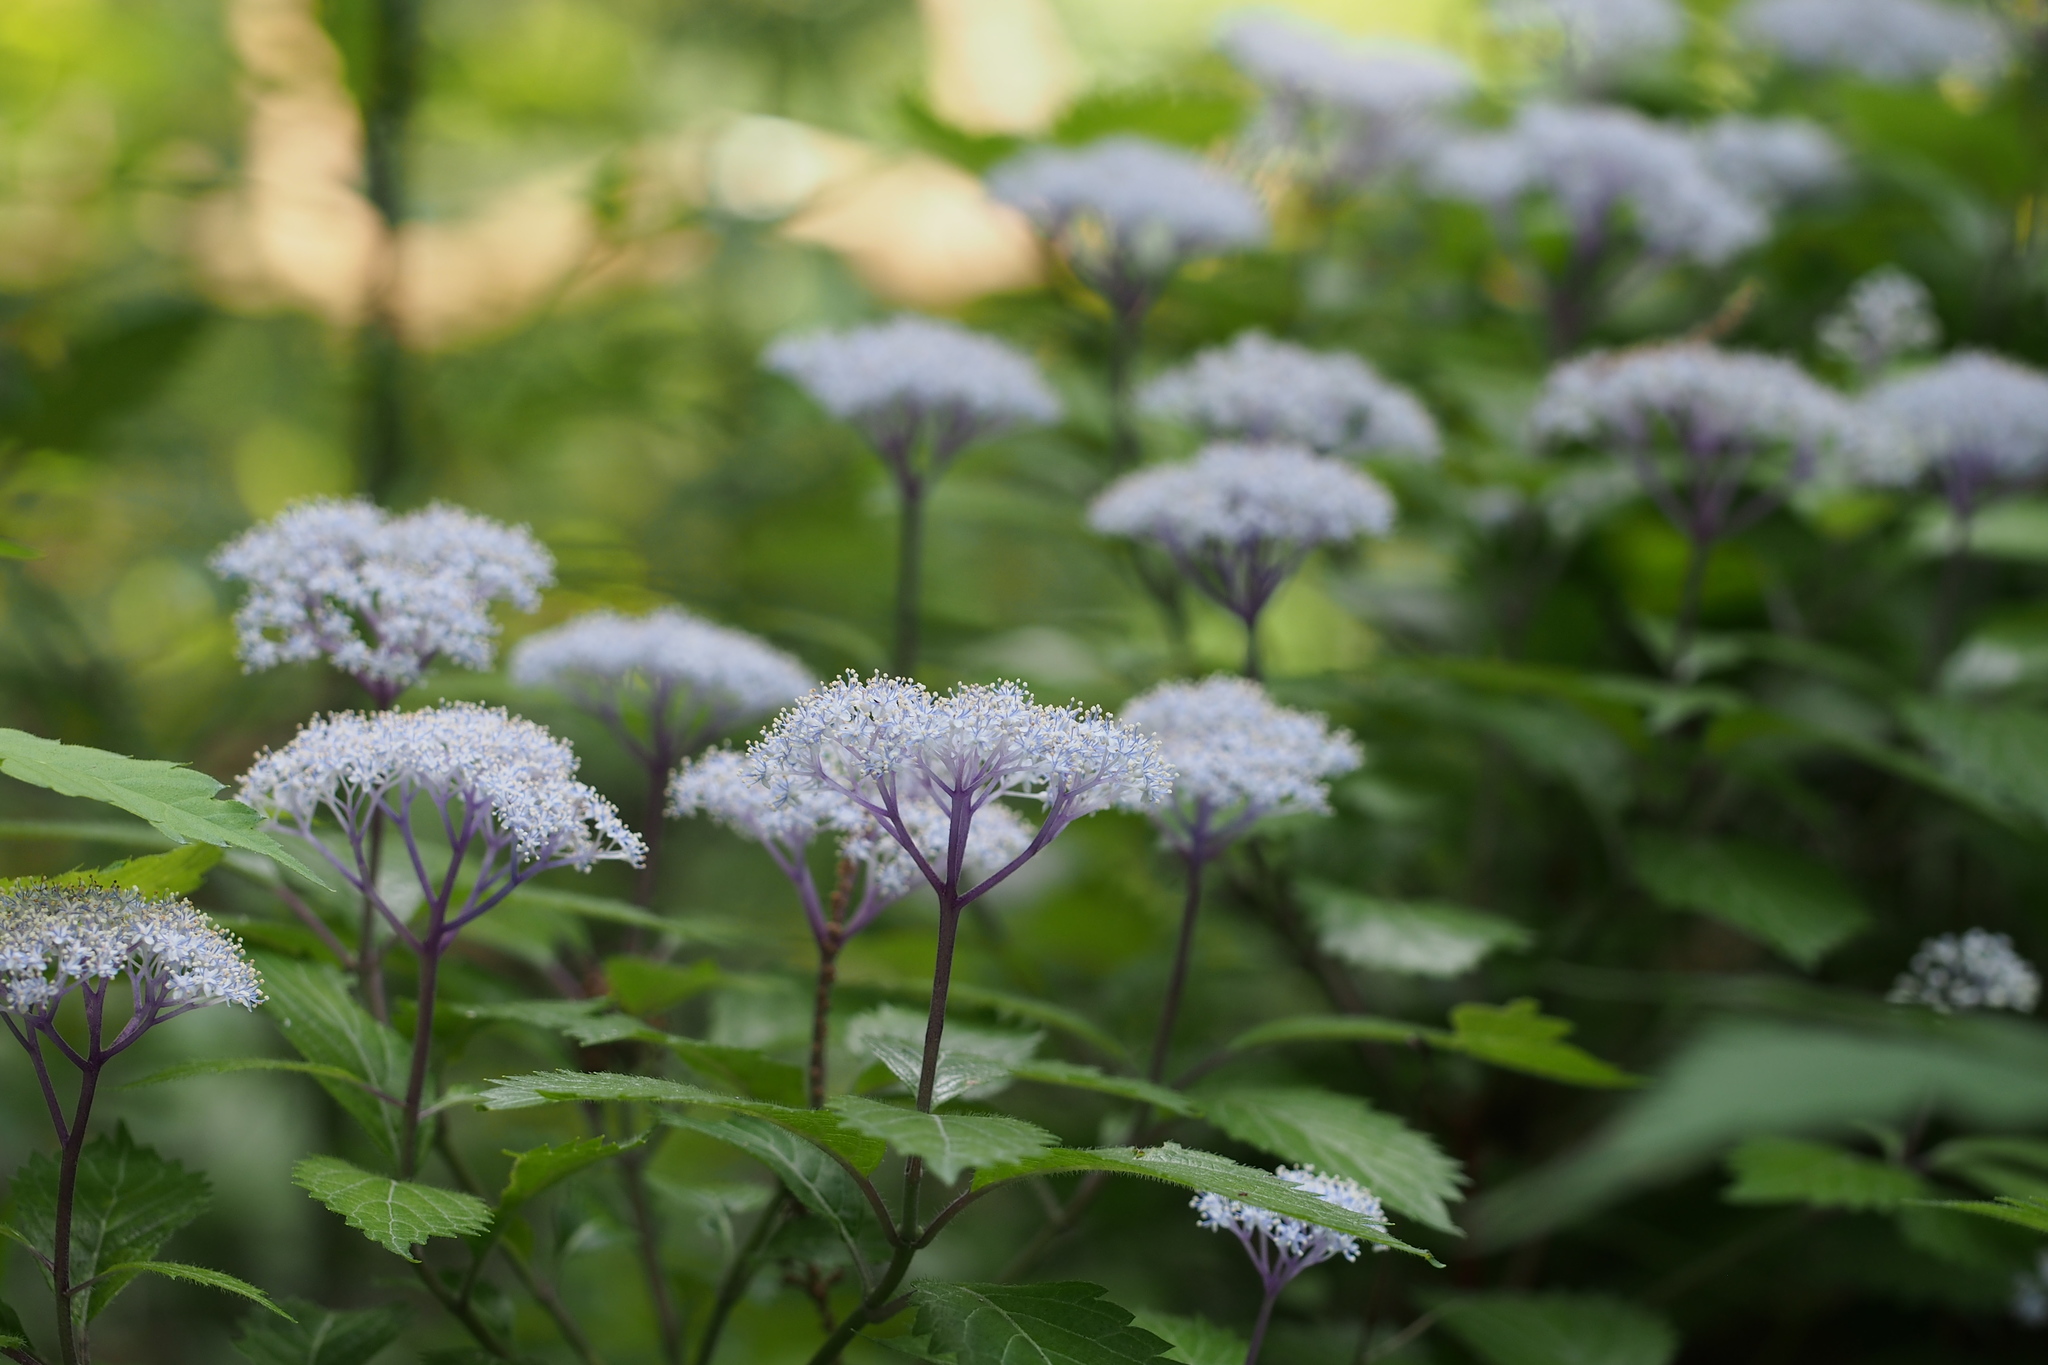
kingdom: Plantae
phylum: Tracheophyta
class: Magnoliopsida
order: Cornales
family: Hydrangeaceae
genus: Hydrangea
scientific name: Hydrangea hirta
